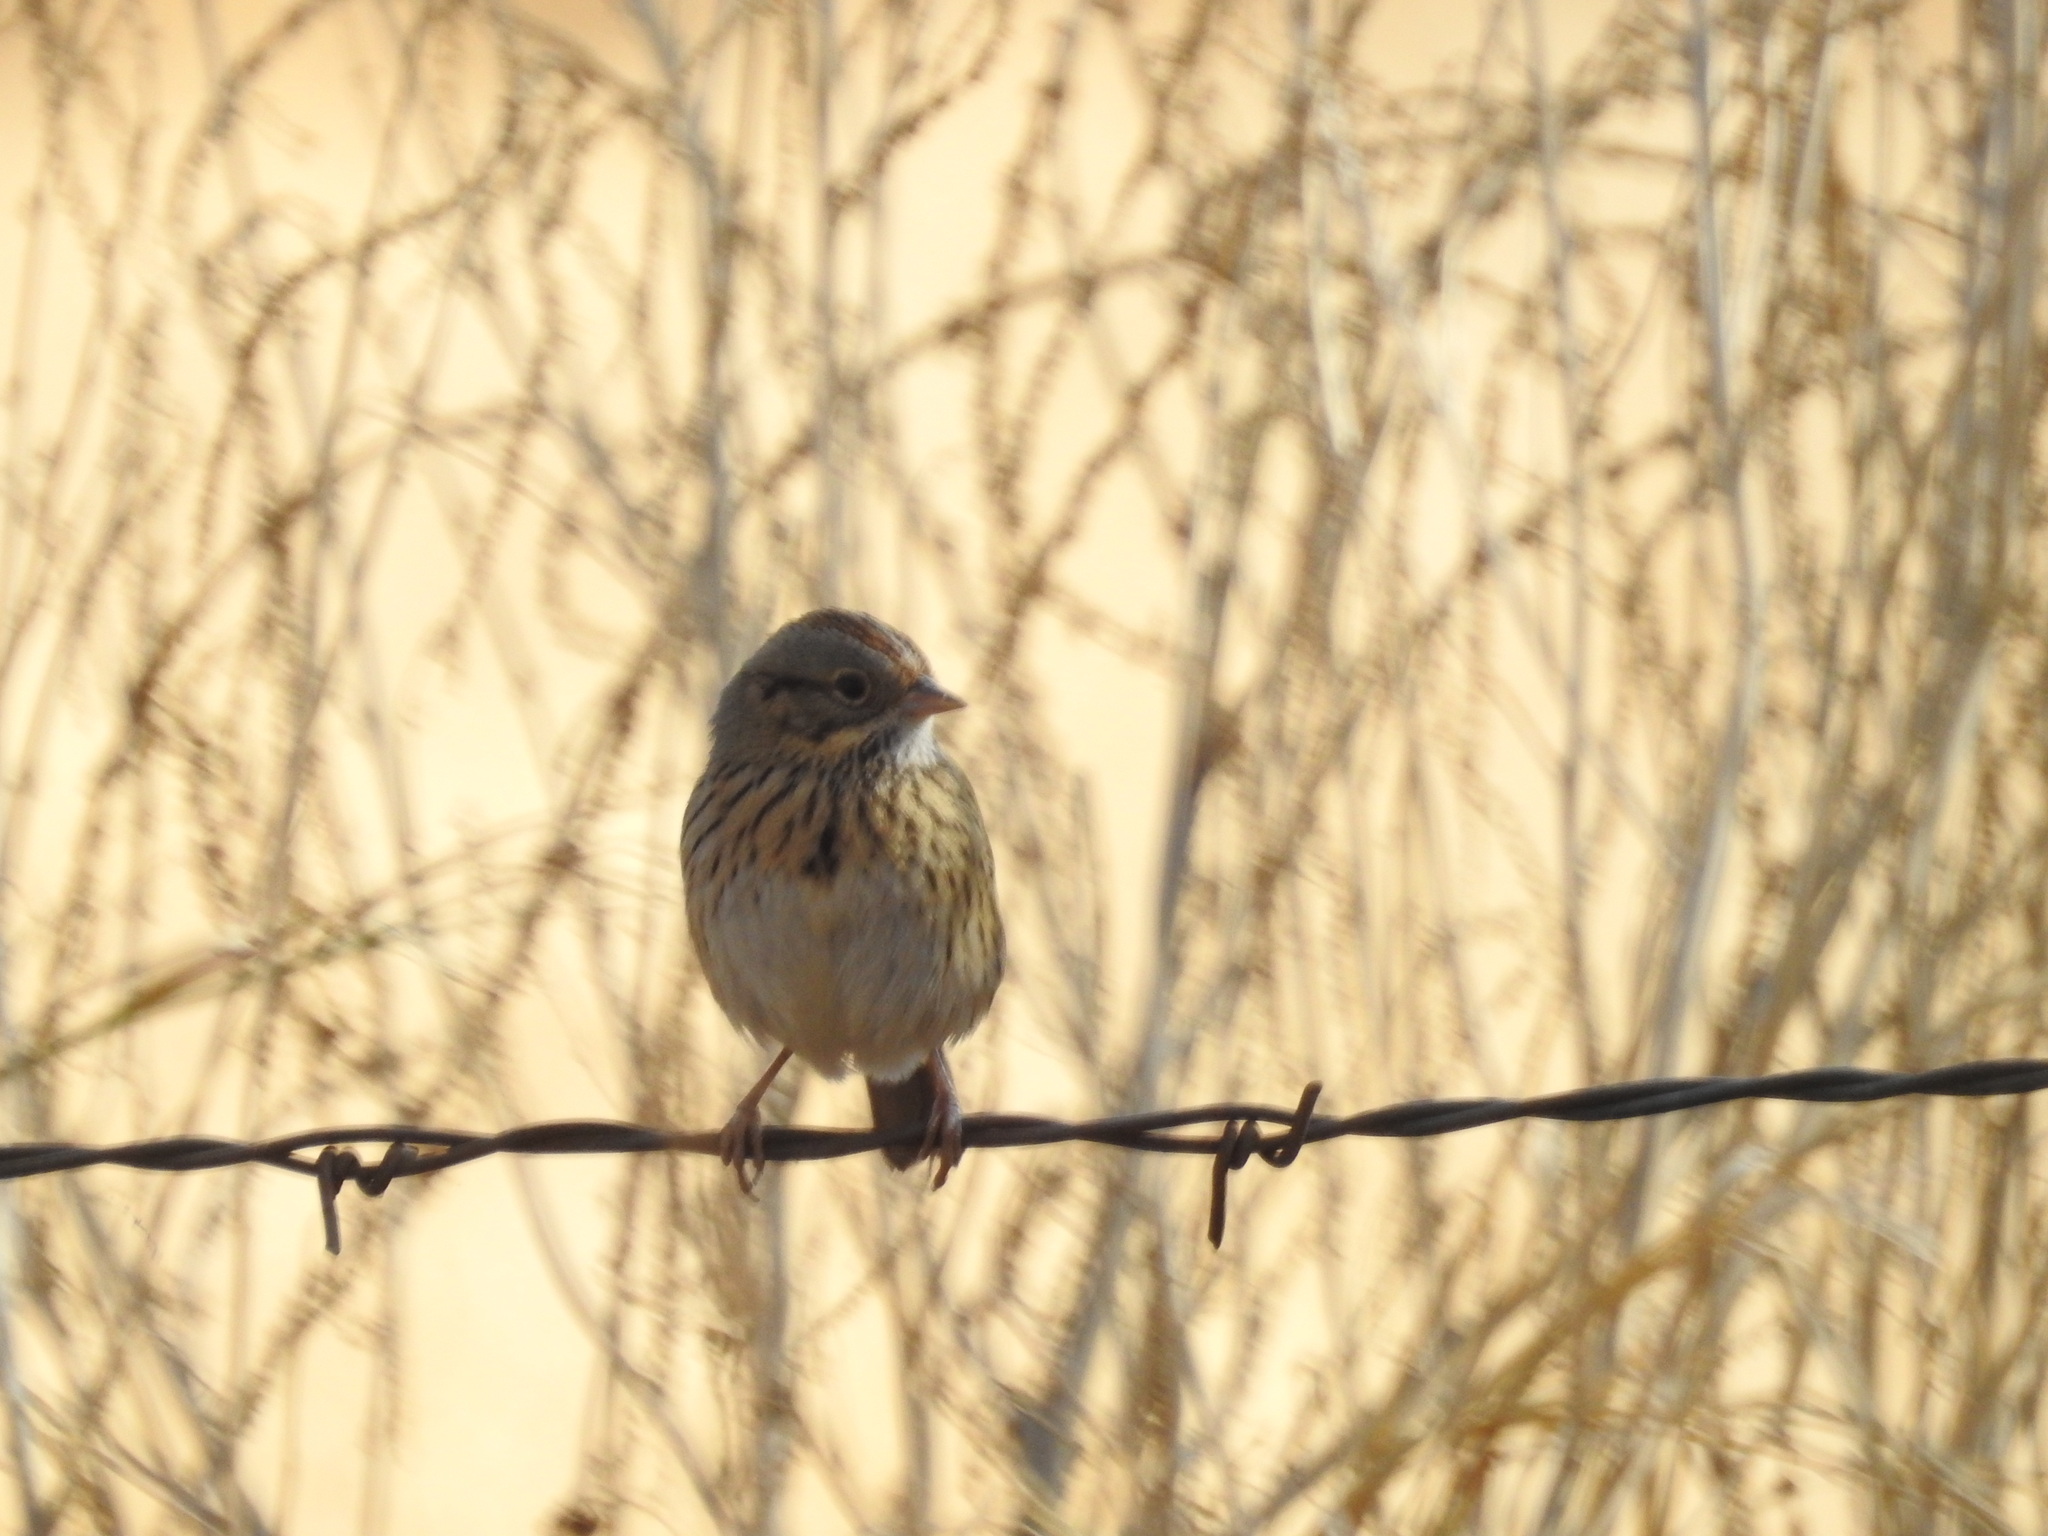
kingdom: Animalia
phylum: Chordata
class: Aves
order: Passeriformes
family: Passerellidae
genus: Melospiza
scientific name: Melospiza lincolnii
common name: Lincoln's sparrow
